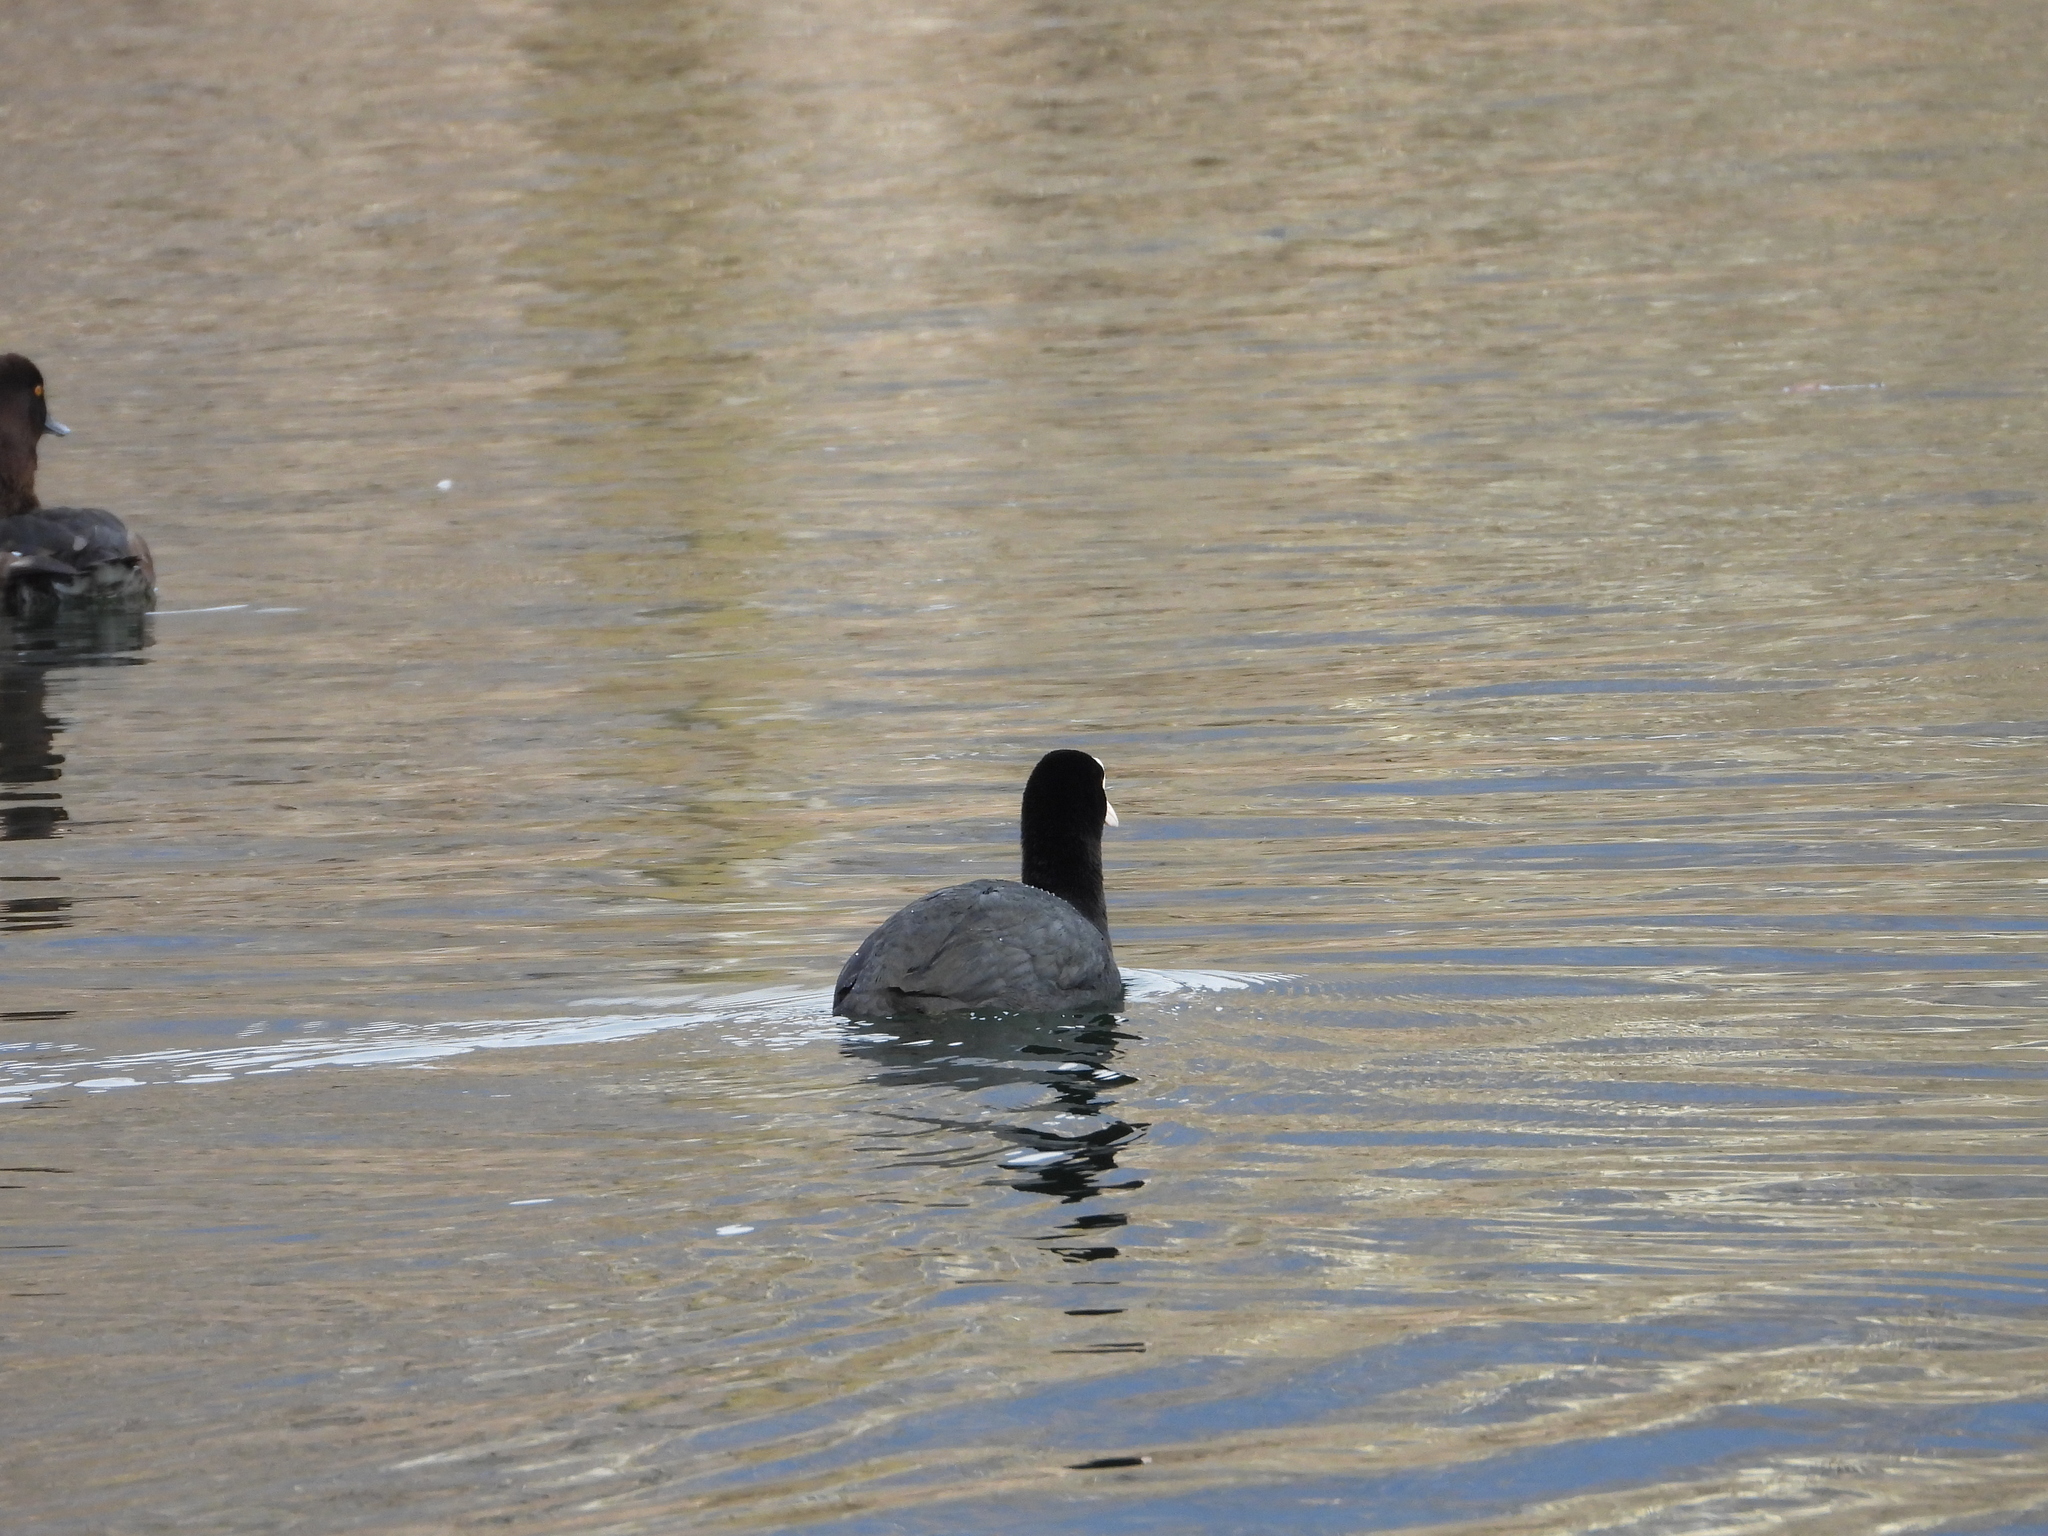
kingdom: Animalia
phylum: Chordata
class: Aves
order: Gruiformes
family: Rallidae
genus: Fulica
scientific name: Fulica atra
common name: Eurasian coot
